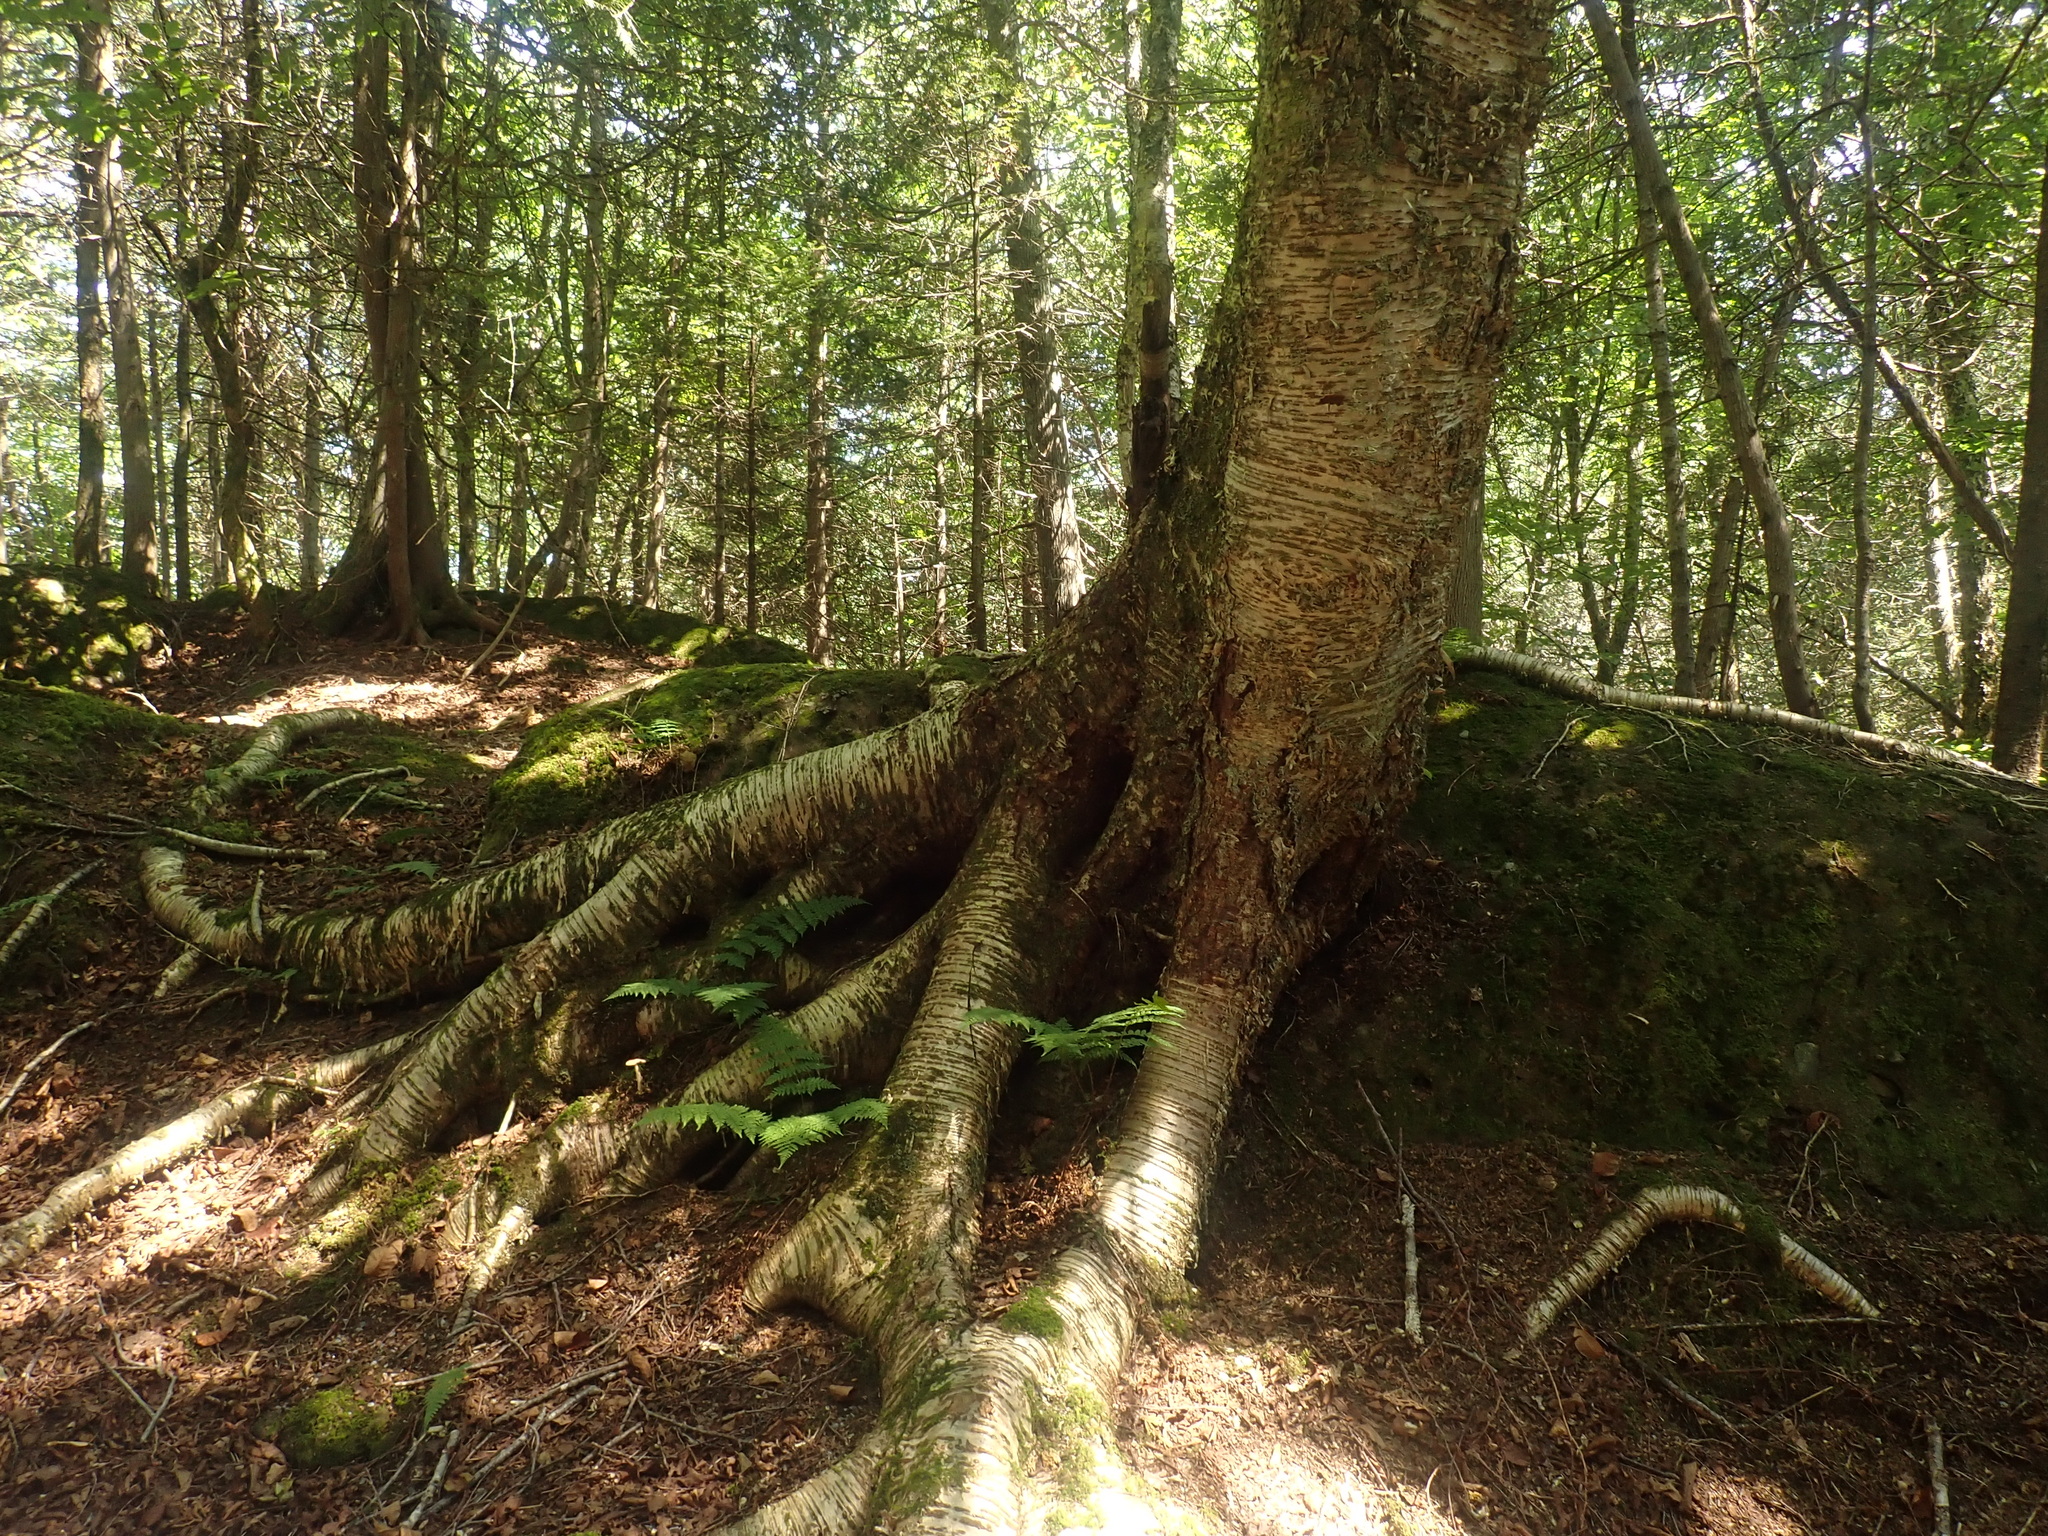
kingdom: Plantae
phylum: Tracheophyta
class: Magnoliopsida
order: Fagales
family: Betulaceae
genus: Betula
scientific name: Betula alleghaniensis
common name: Yellow birch
